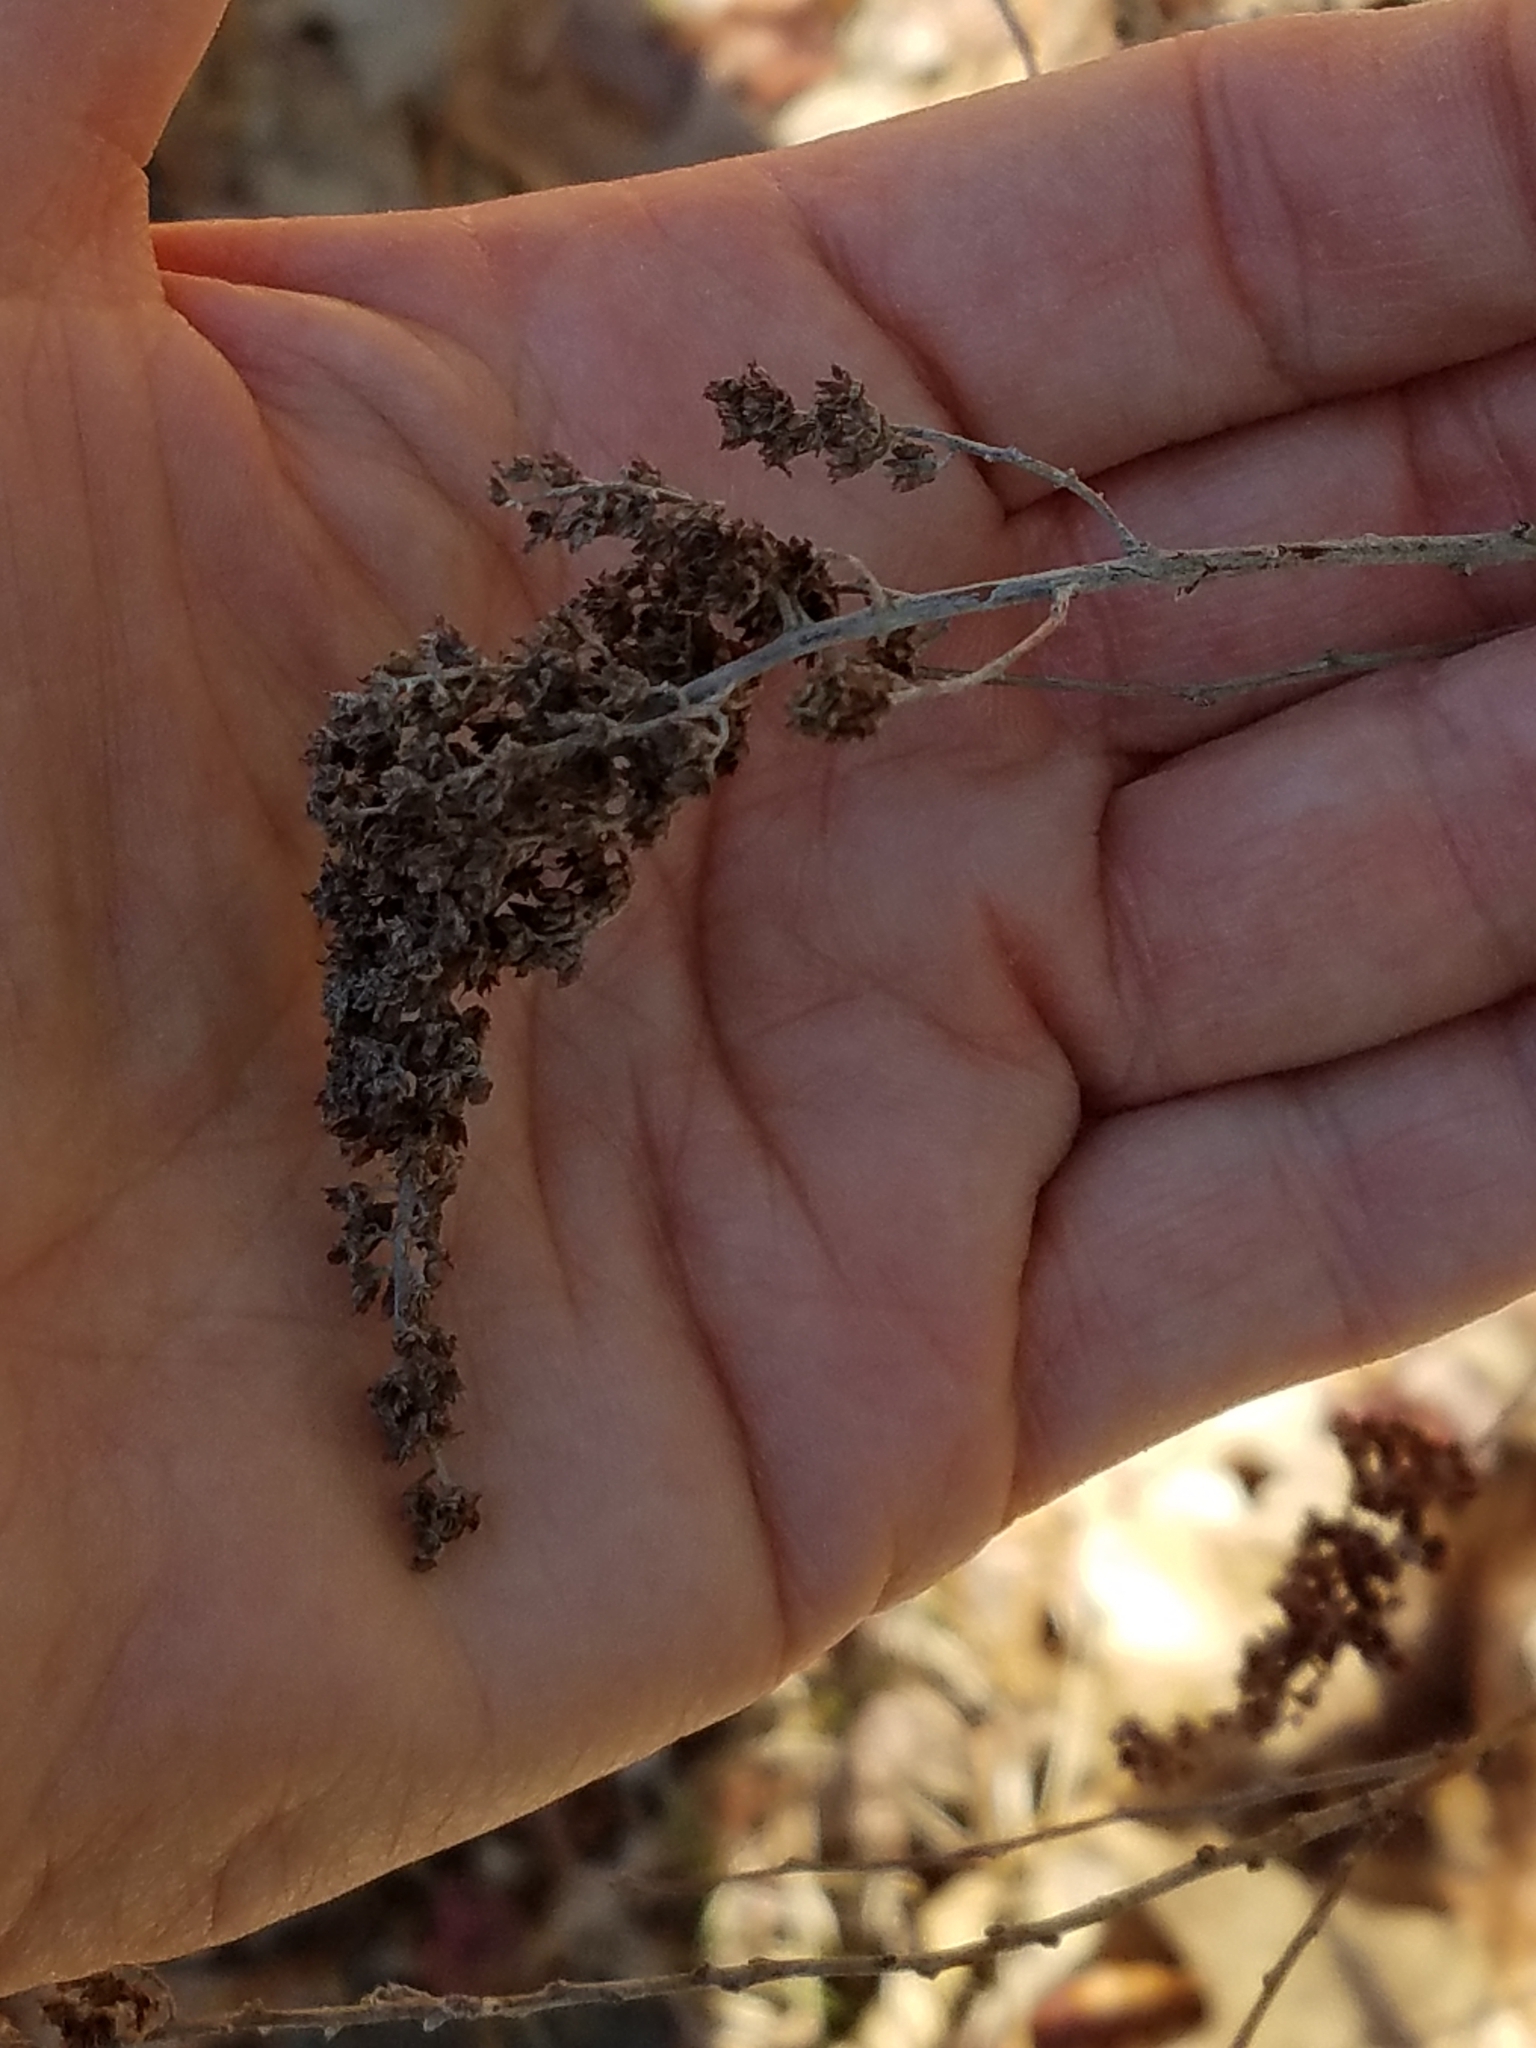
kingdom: Plantae
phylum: Tracheophyta
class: Magnoliopsida
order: Rosales
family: Rosaceae
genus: Spiraea
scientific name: Spiraea tomentosa
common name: Hardhack
